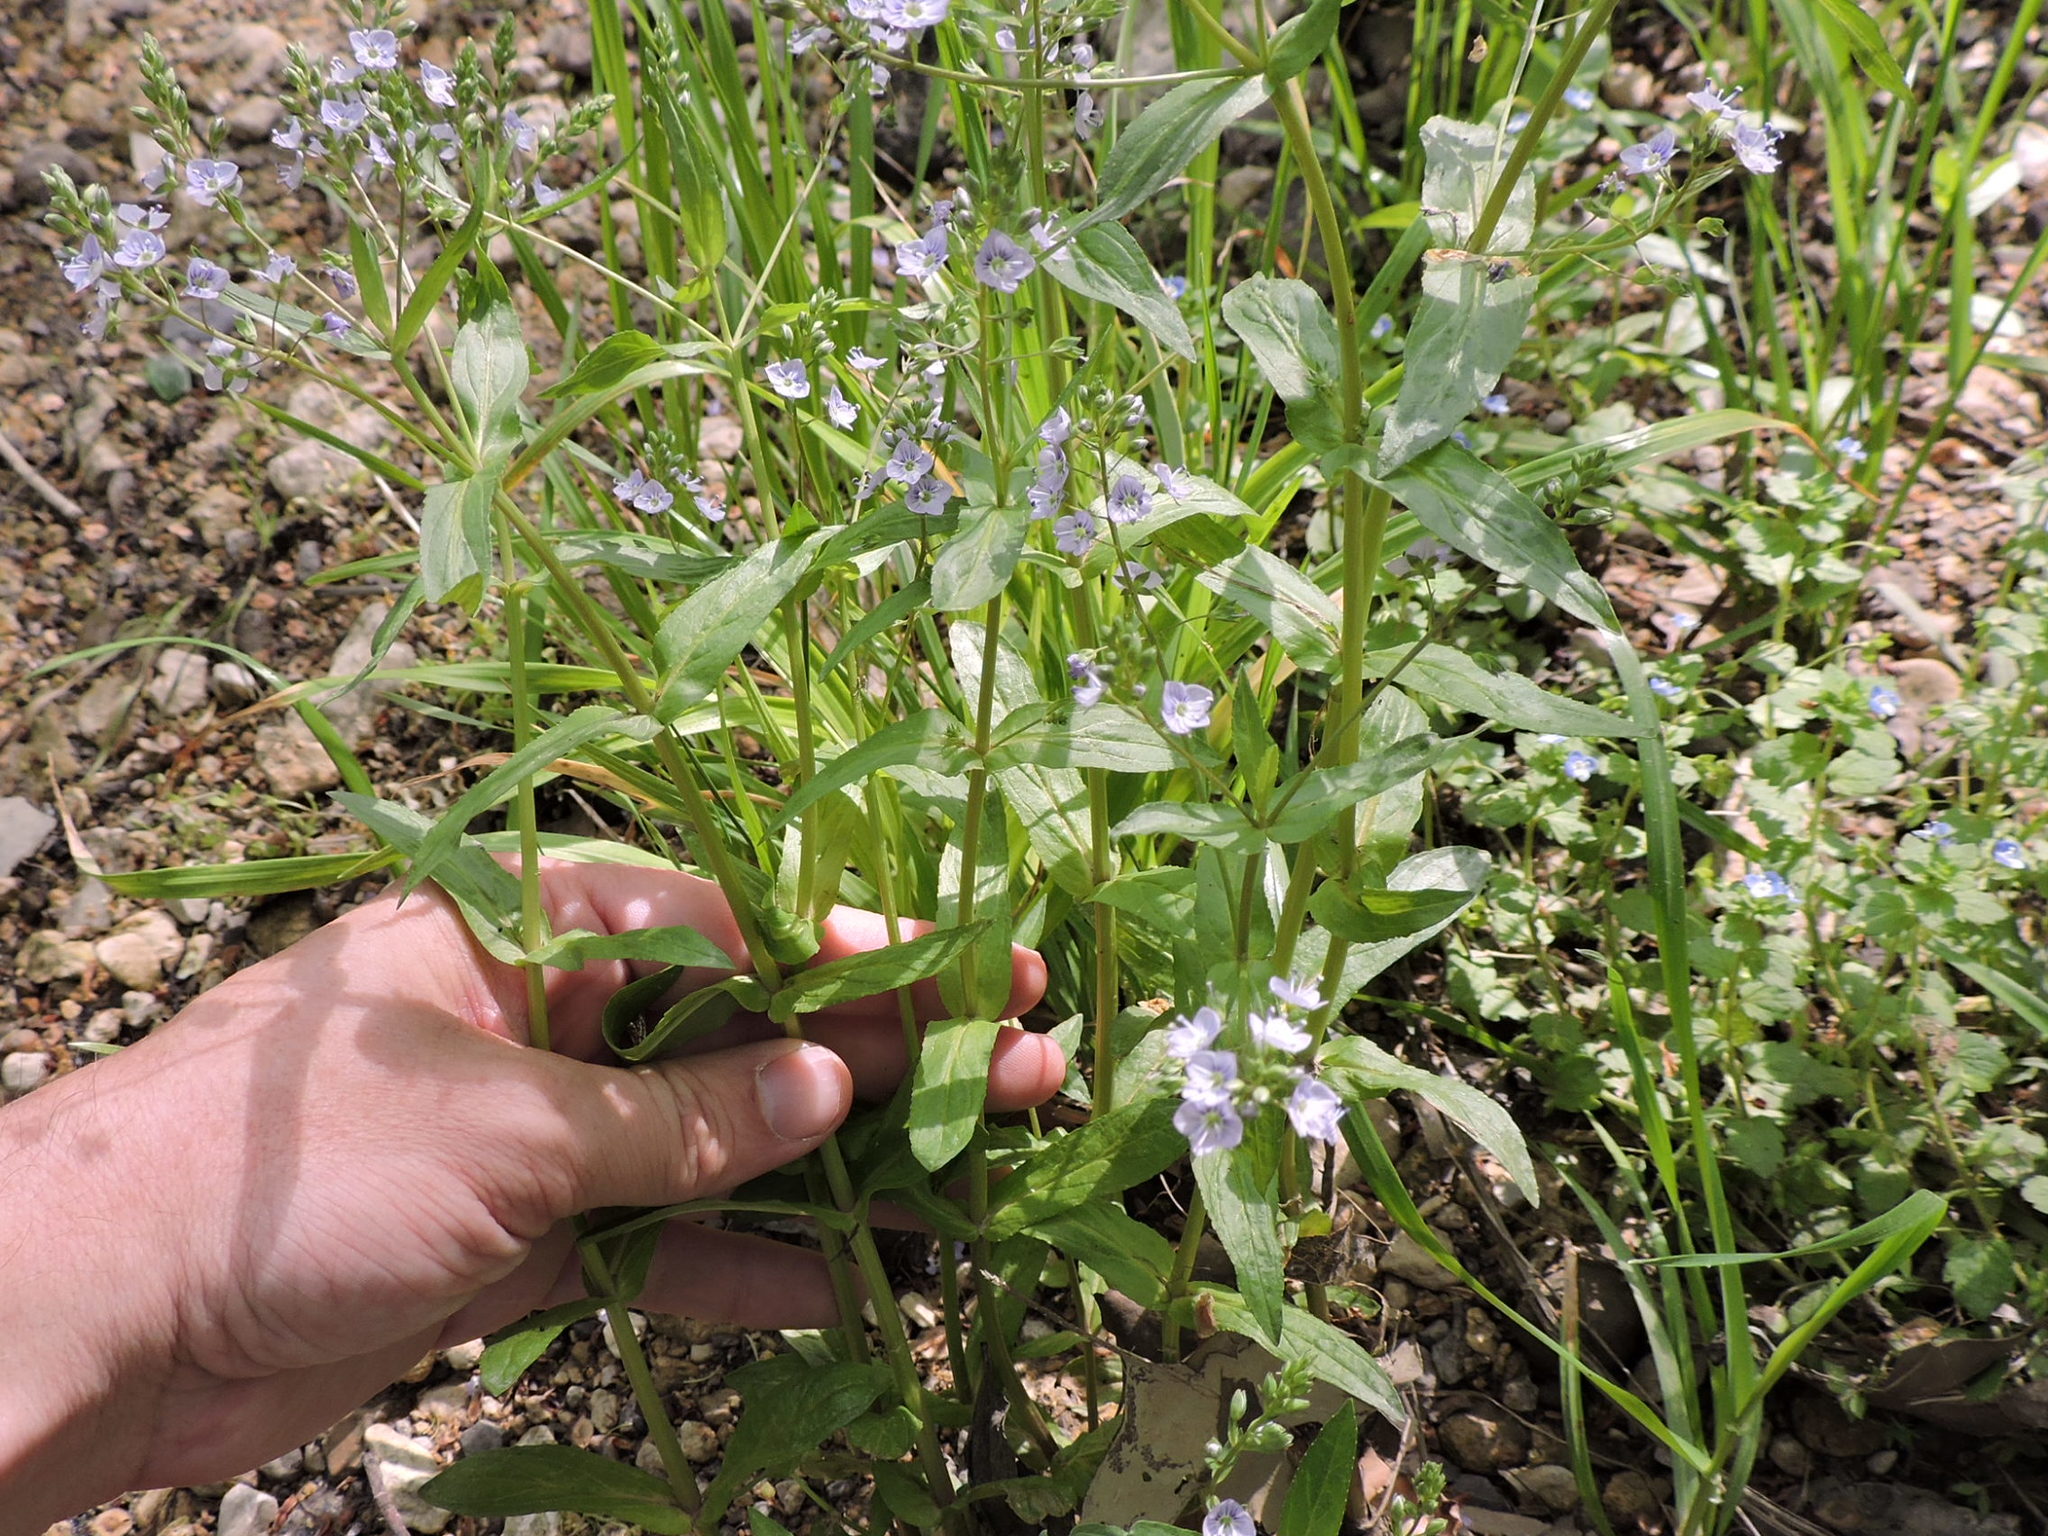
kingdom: Plantae
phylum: Tracheophyta
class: Magnoliopsida
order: Lamiales
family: Plantaginaceae
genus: Veronica
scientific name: Veronica anagallis-aquatica
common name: Water speedwell
